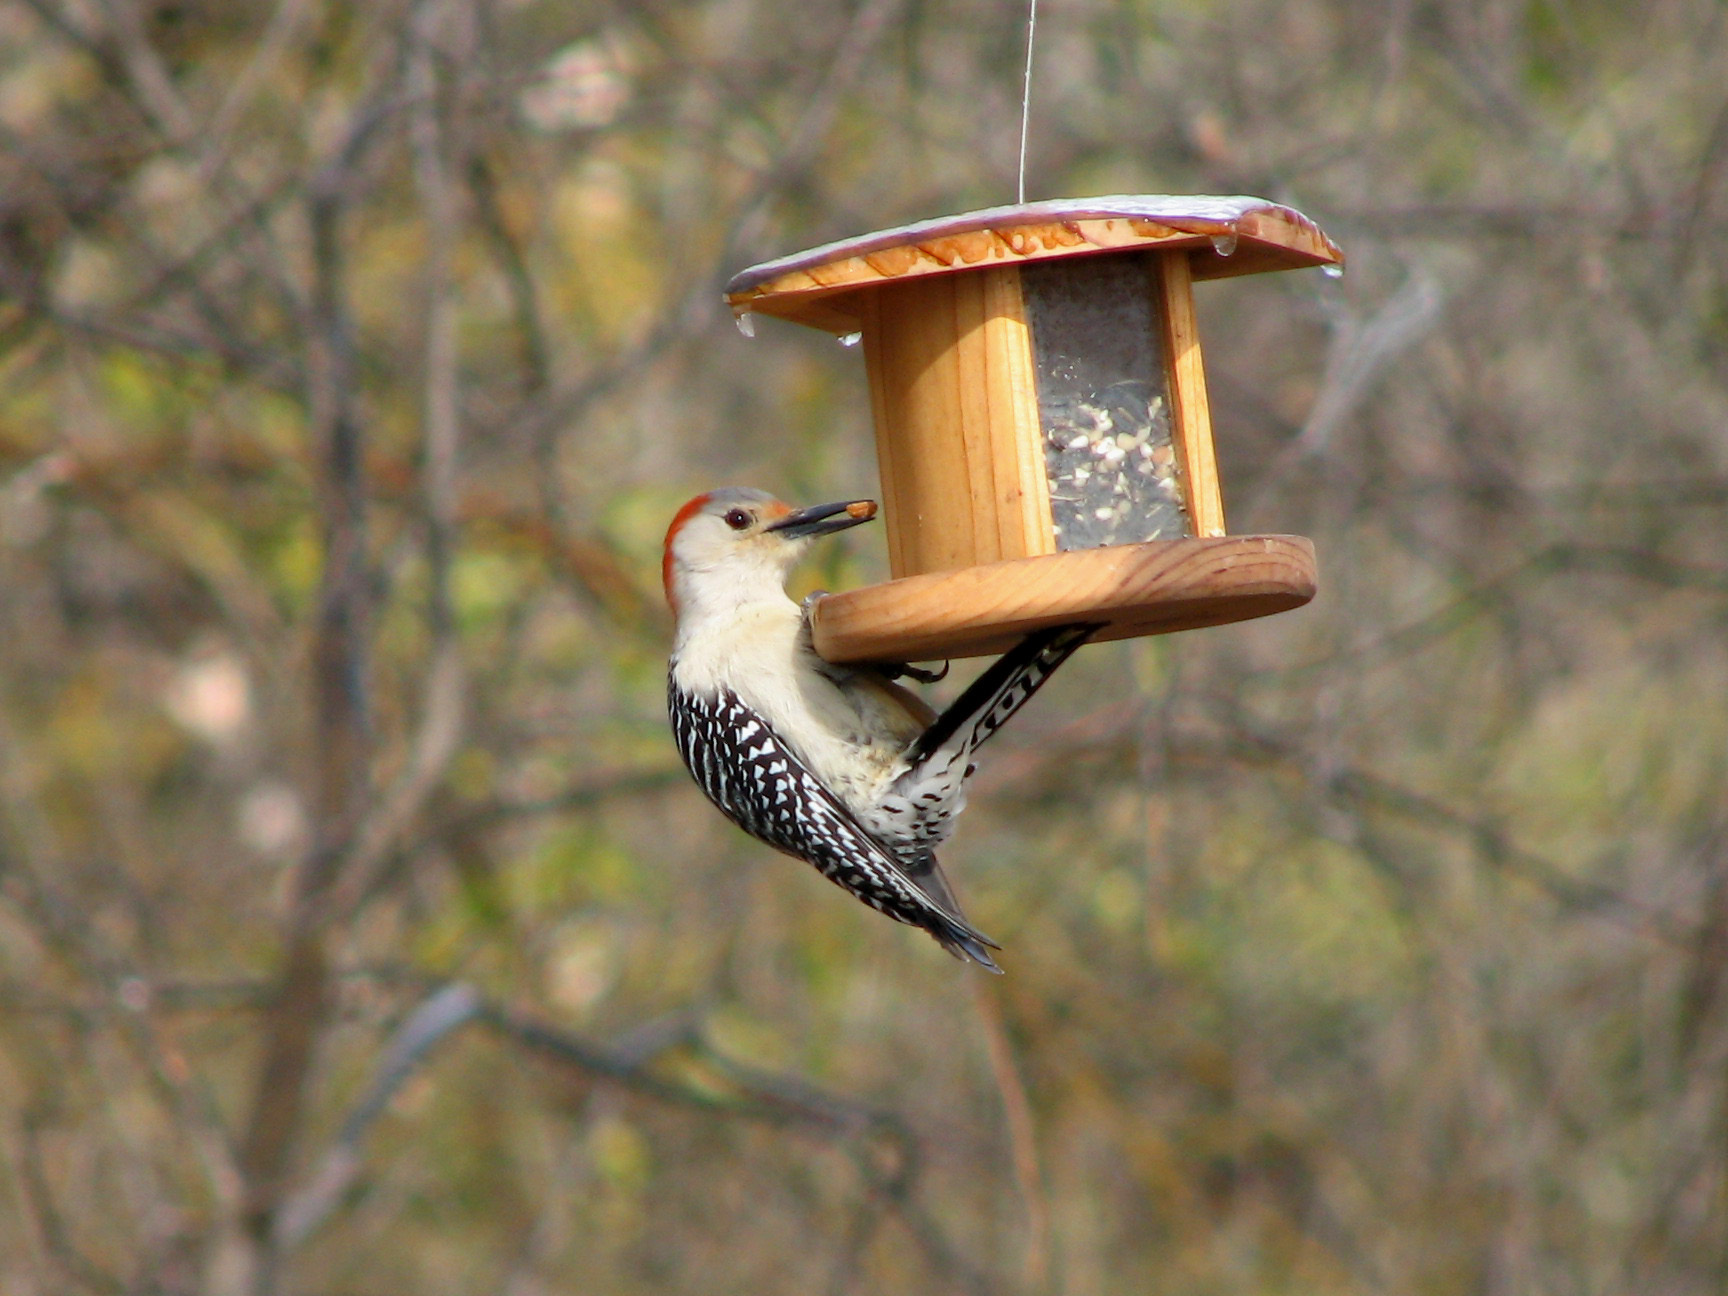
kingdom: Animalia
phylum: Chordata
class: Aves
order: Piciformes
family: Picidae
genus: Melanerpes
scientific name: Melanerpes carolinus
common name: Red-bellied woodpecker
